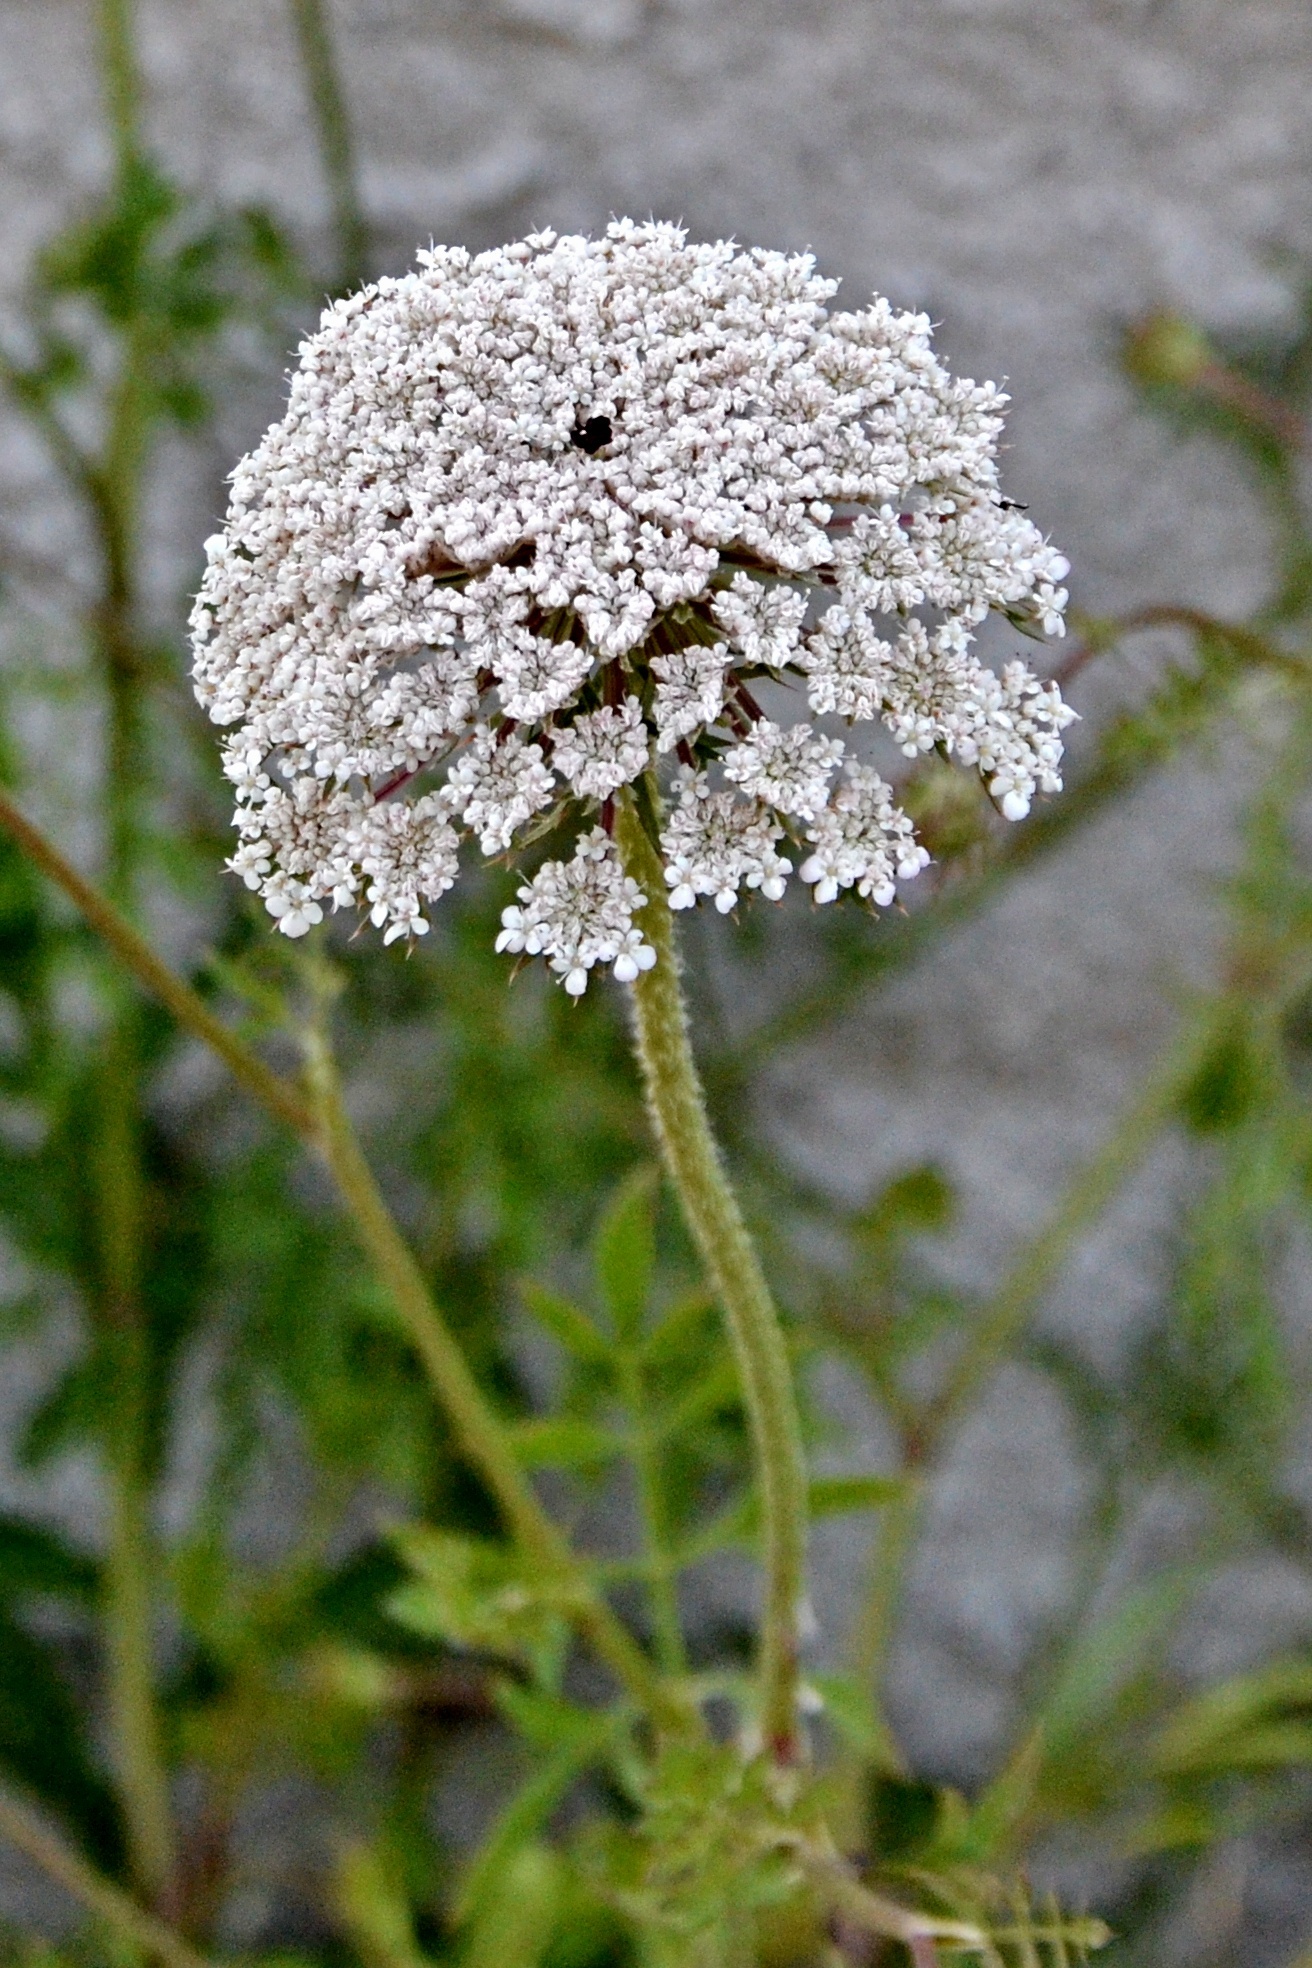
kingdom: Plantae
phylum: Tracheophyta
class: Magnoliopsida
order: Apiales
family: Apiaceae
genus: Daucus
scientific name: Daucus carota
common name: Wild carrot
